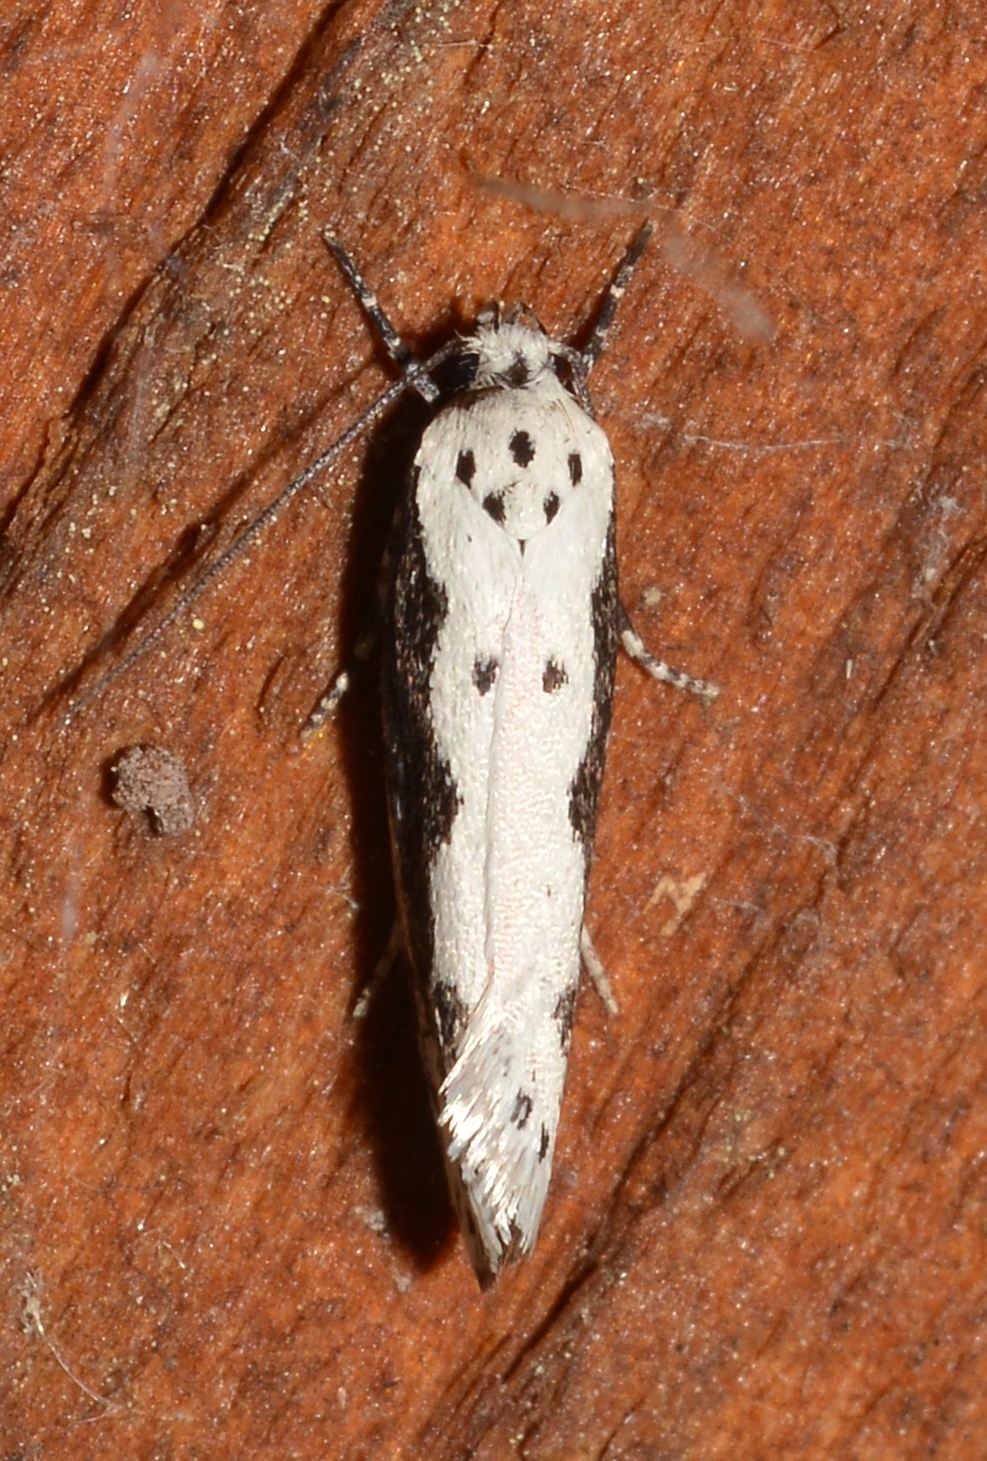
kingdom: Animalia
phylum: Arthropoda
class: Insecta
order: Lepidoptera
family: Ethmiidae
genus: Ethmia
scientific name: Ethmia trifurcella
